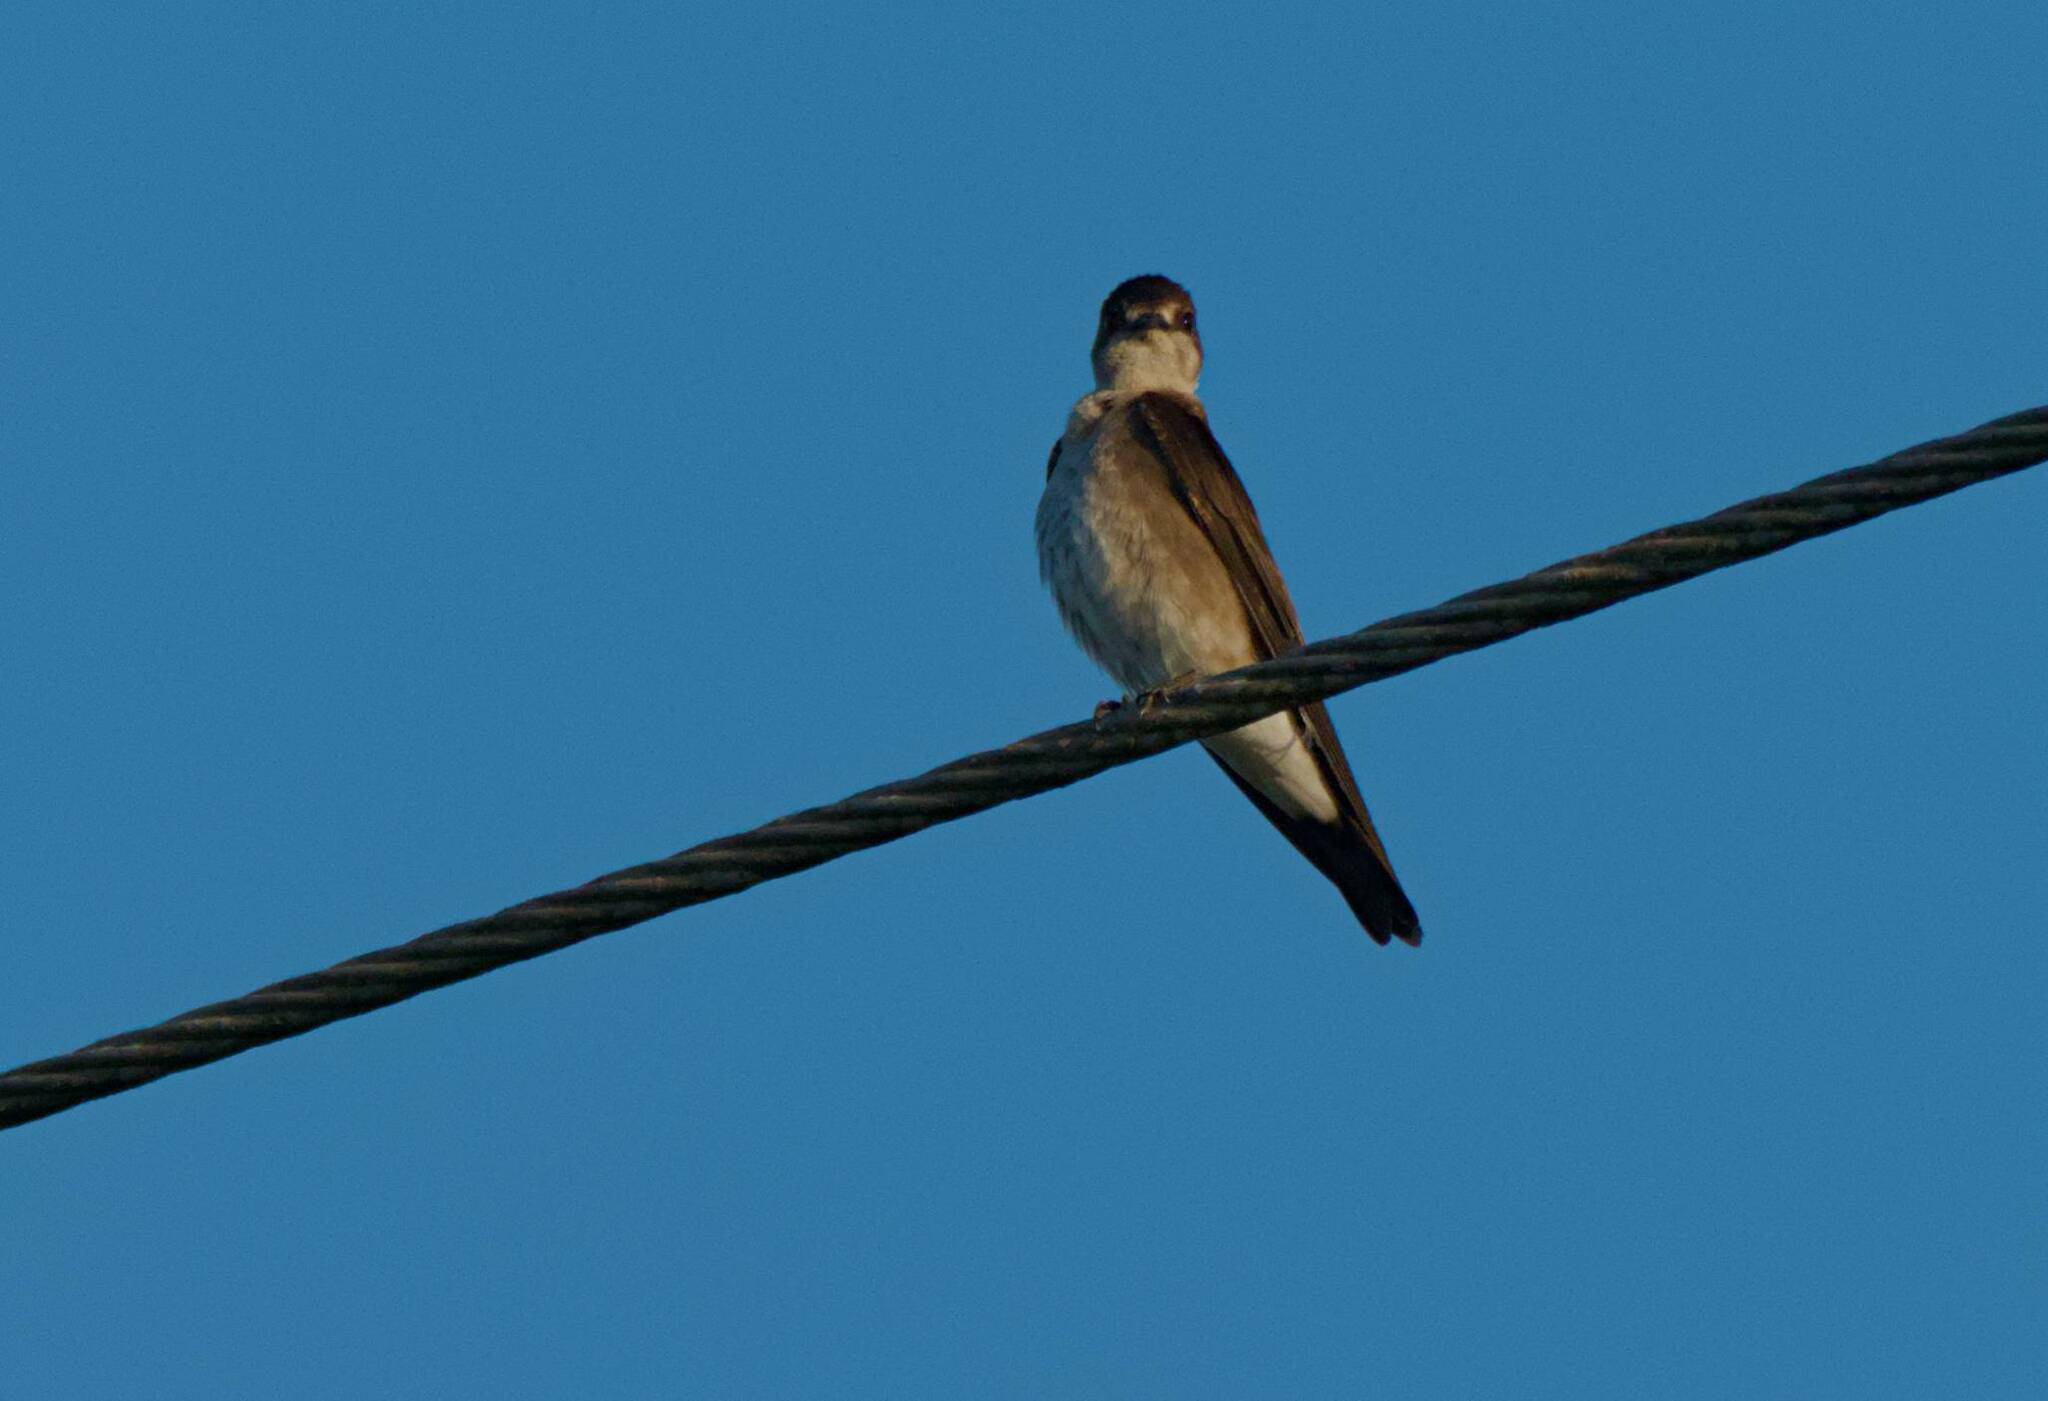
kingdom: Animalia
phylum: Chordata
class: Aves
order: Passeriformes
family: Hirundinidae
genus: Stelgidopteryx
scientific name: Stelgidopteryx serripennis
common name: Northern rough-winged swallow
